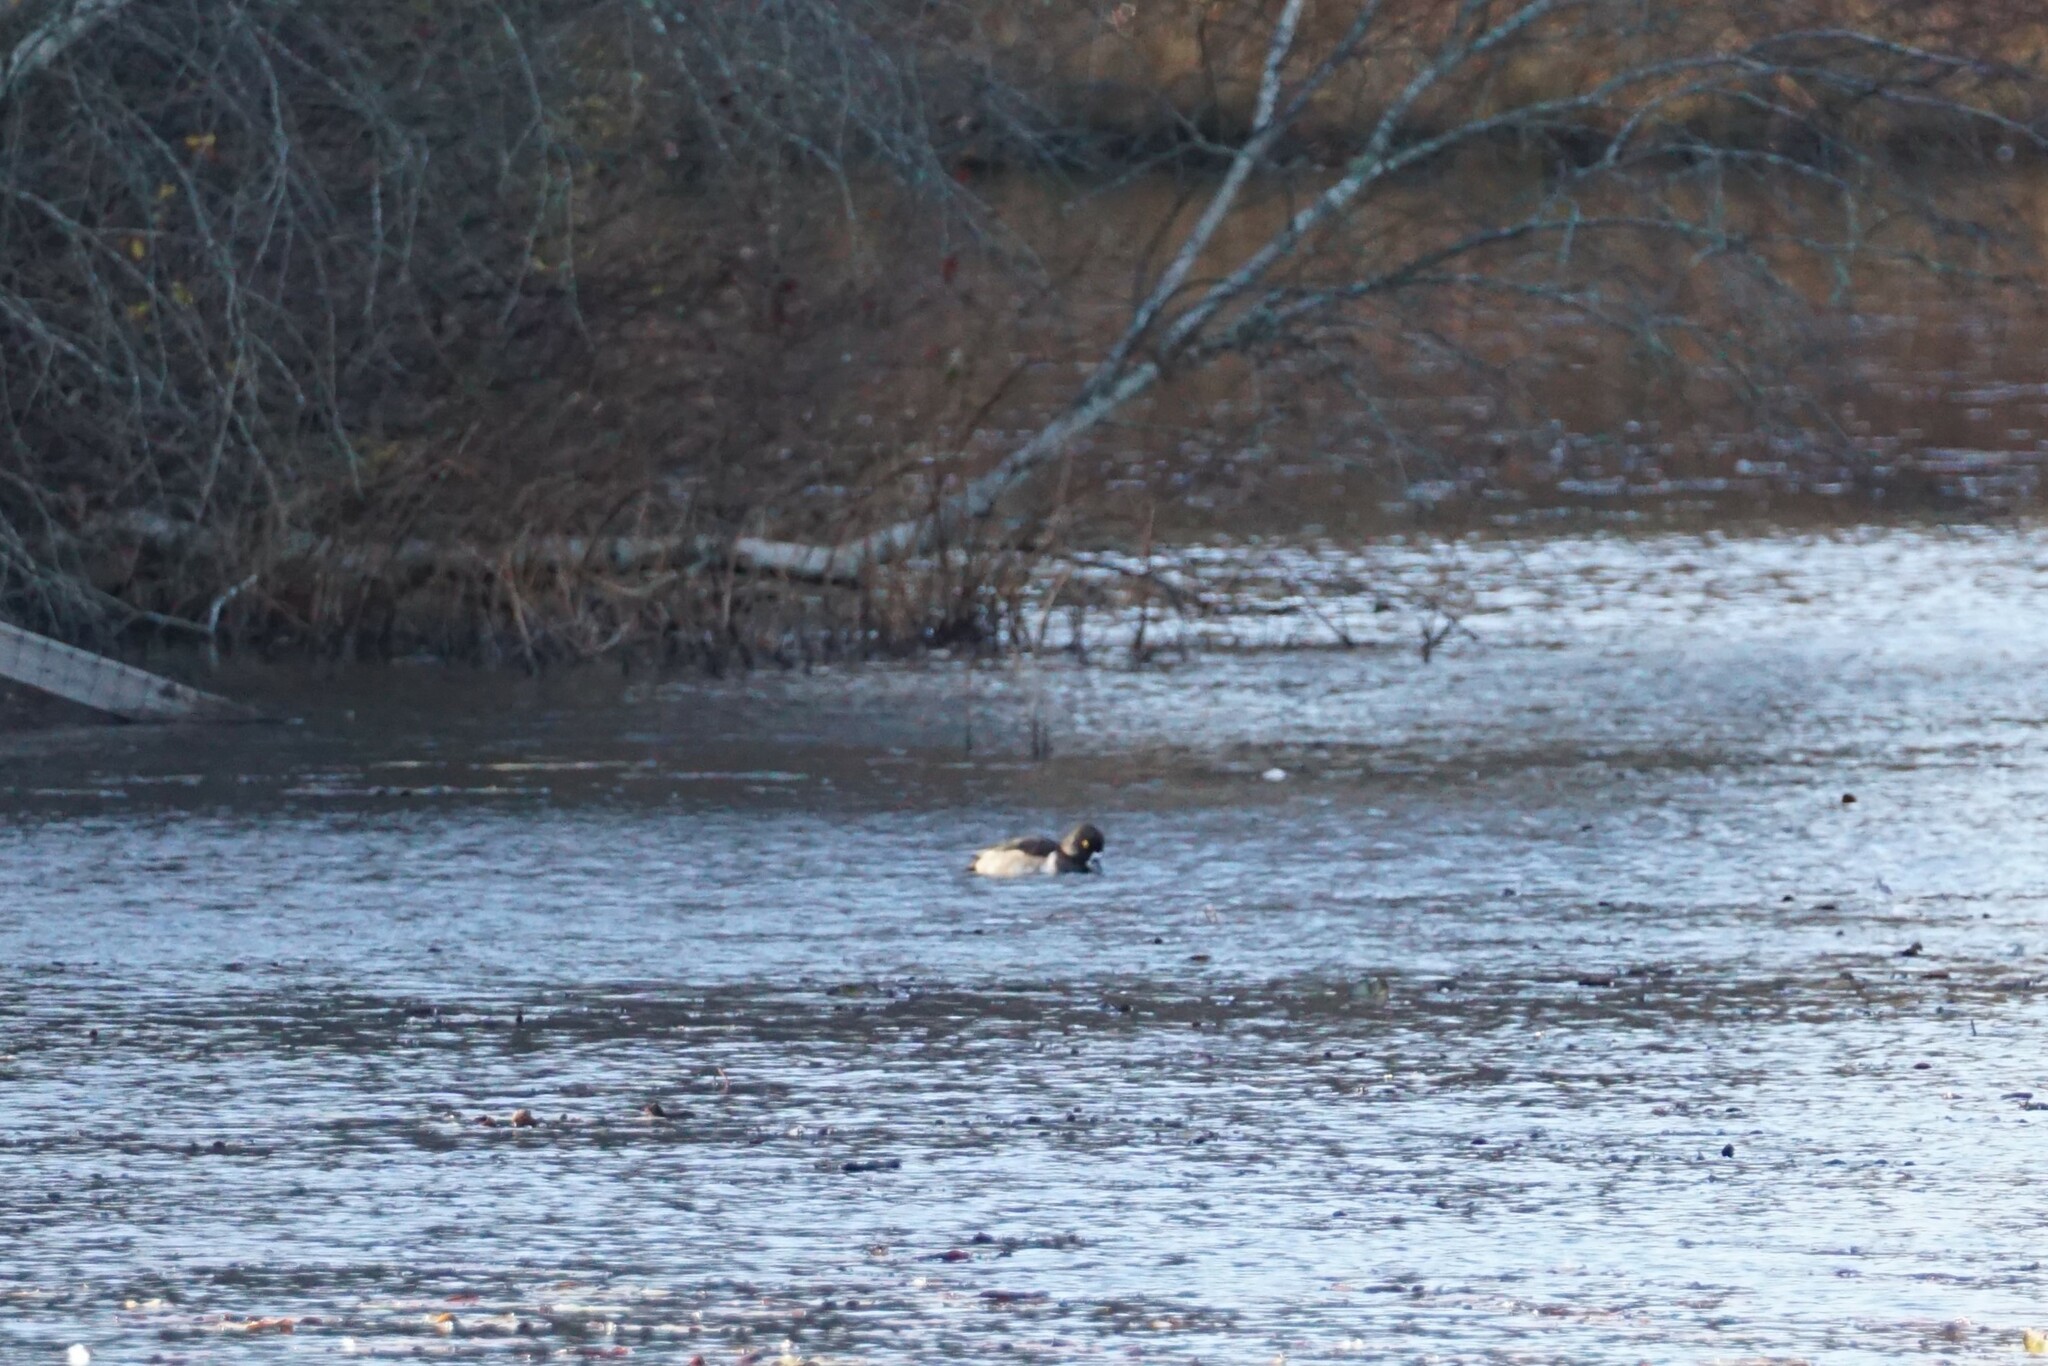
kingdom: Animalia
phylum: Chordata
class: Aves
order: Anseriformes
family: Anatidae
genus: Aythya
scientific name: Aythya collaris
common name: Ring-necked duck
